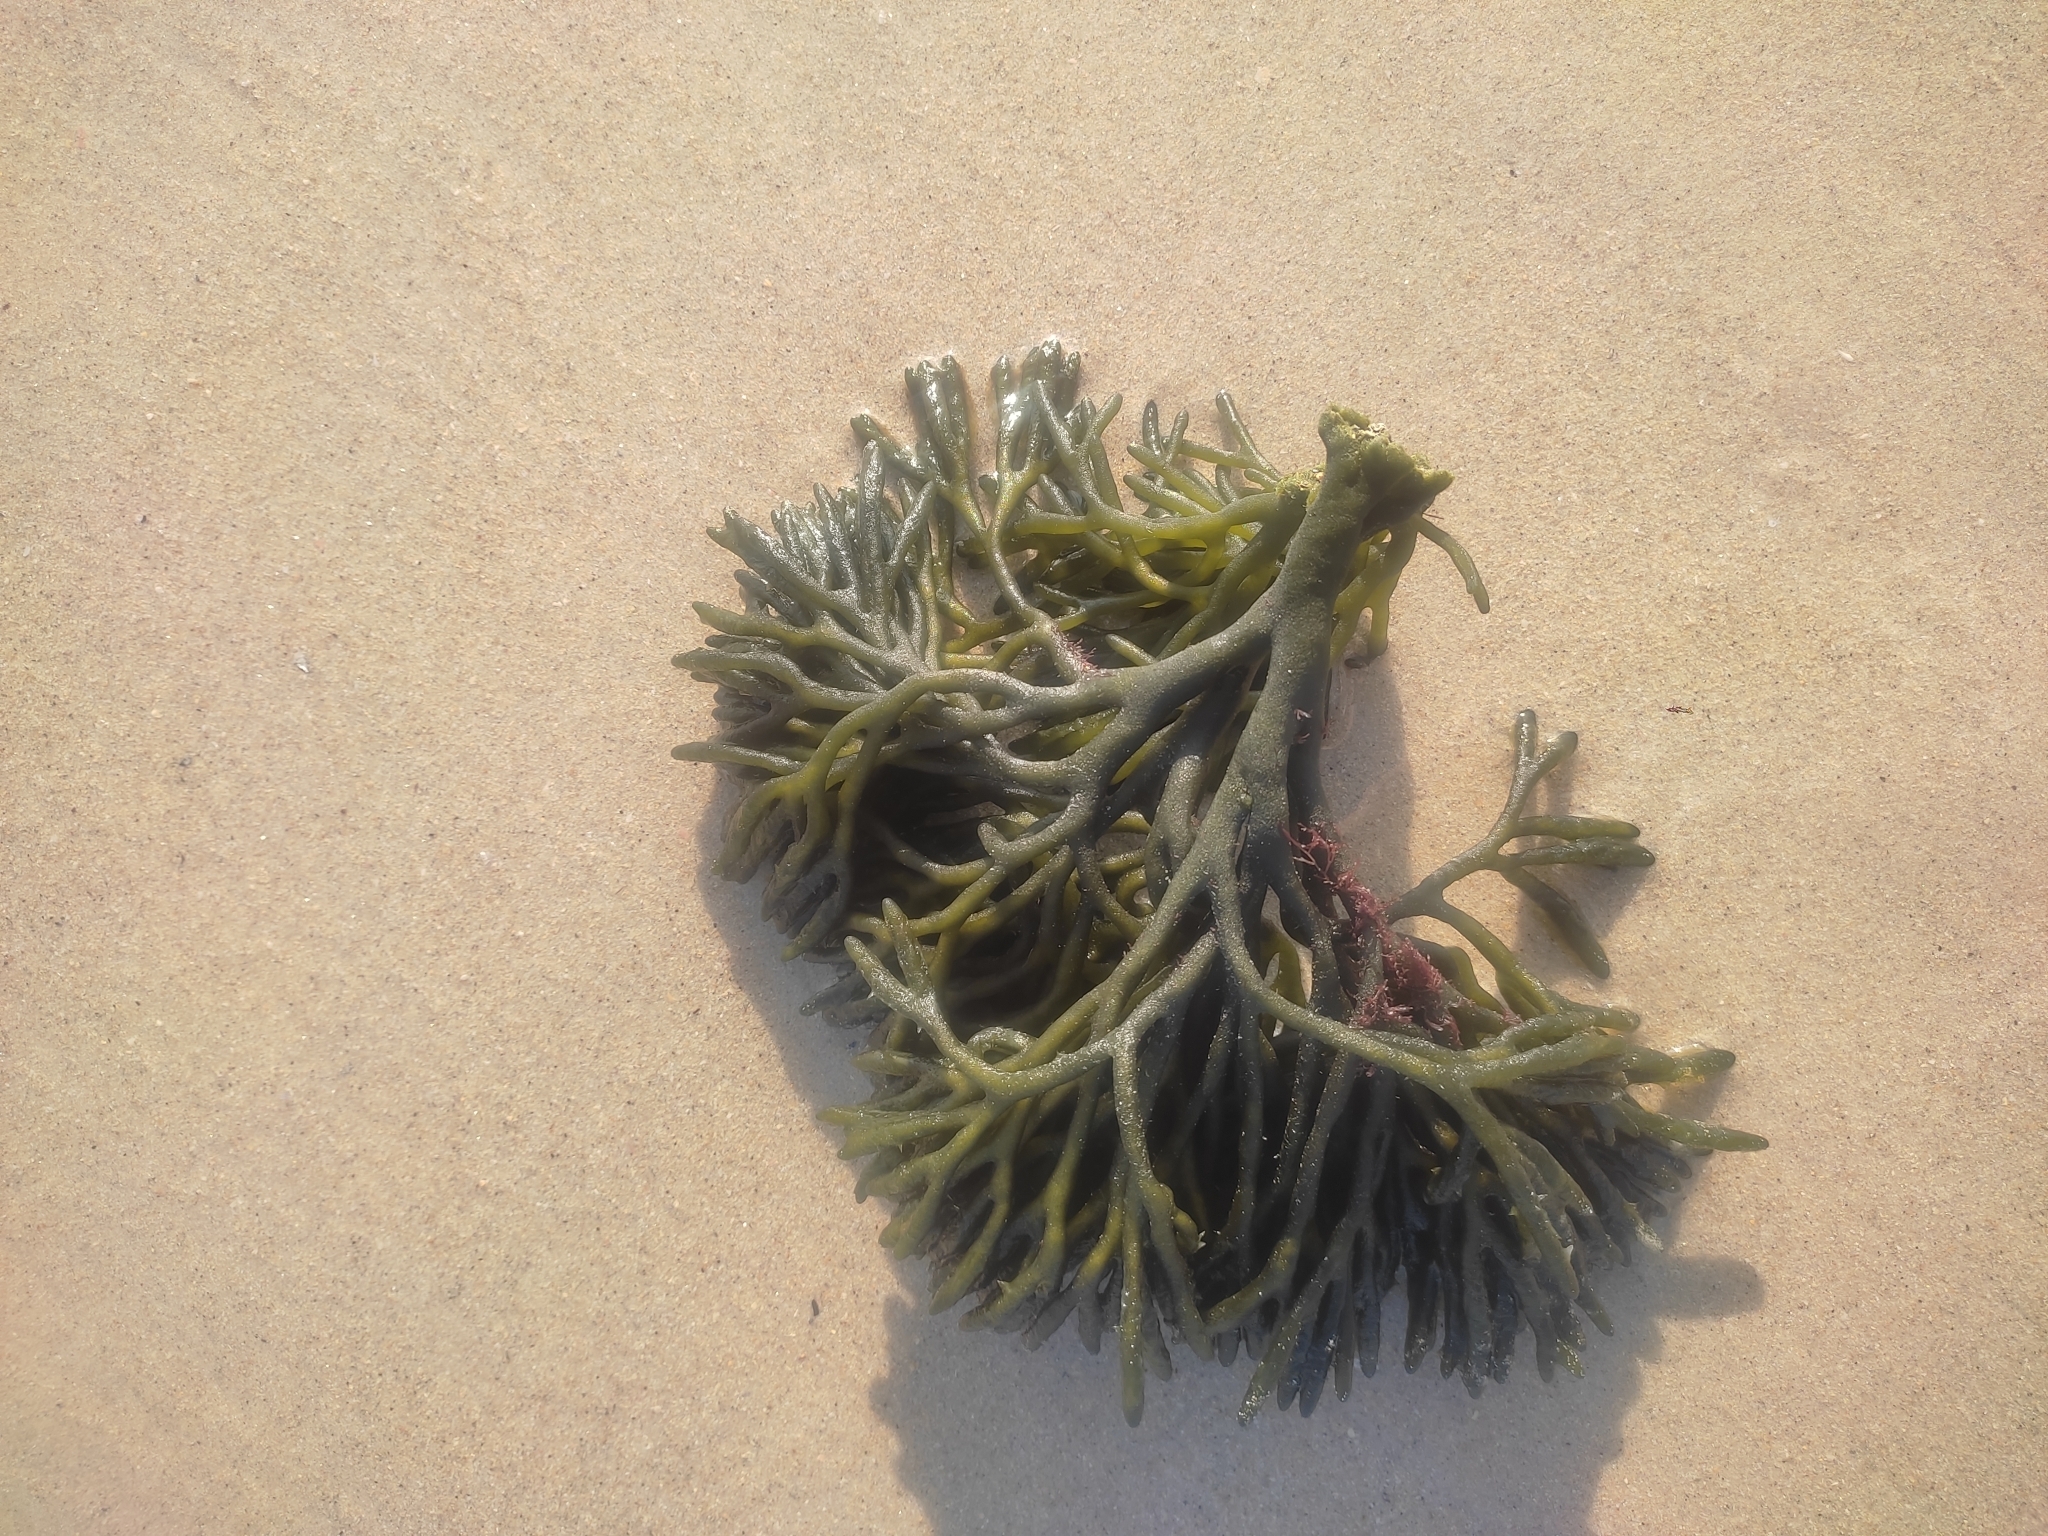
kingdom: Plantae
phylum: Chlorophyta
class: Ulvophyceae
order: Bryopsidales
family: Codiaceae
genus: Codium
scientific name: Codium fragile
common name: Dead man's fingers
